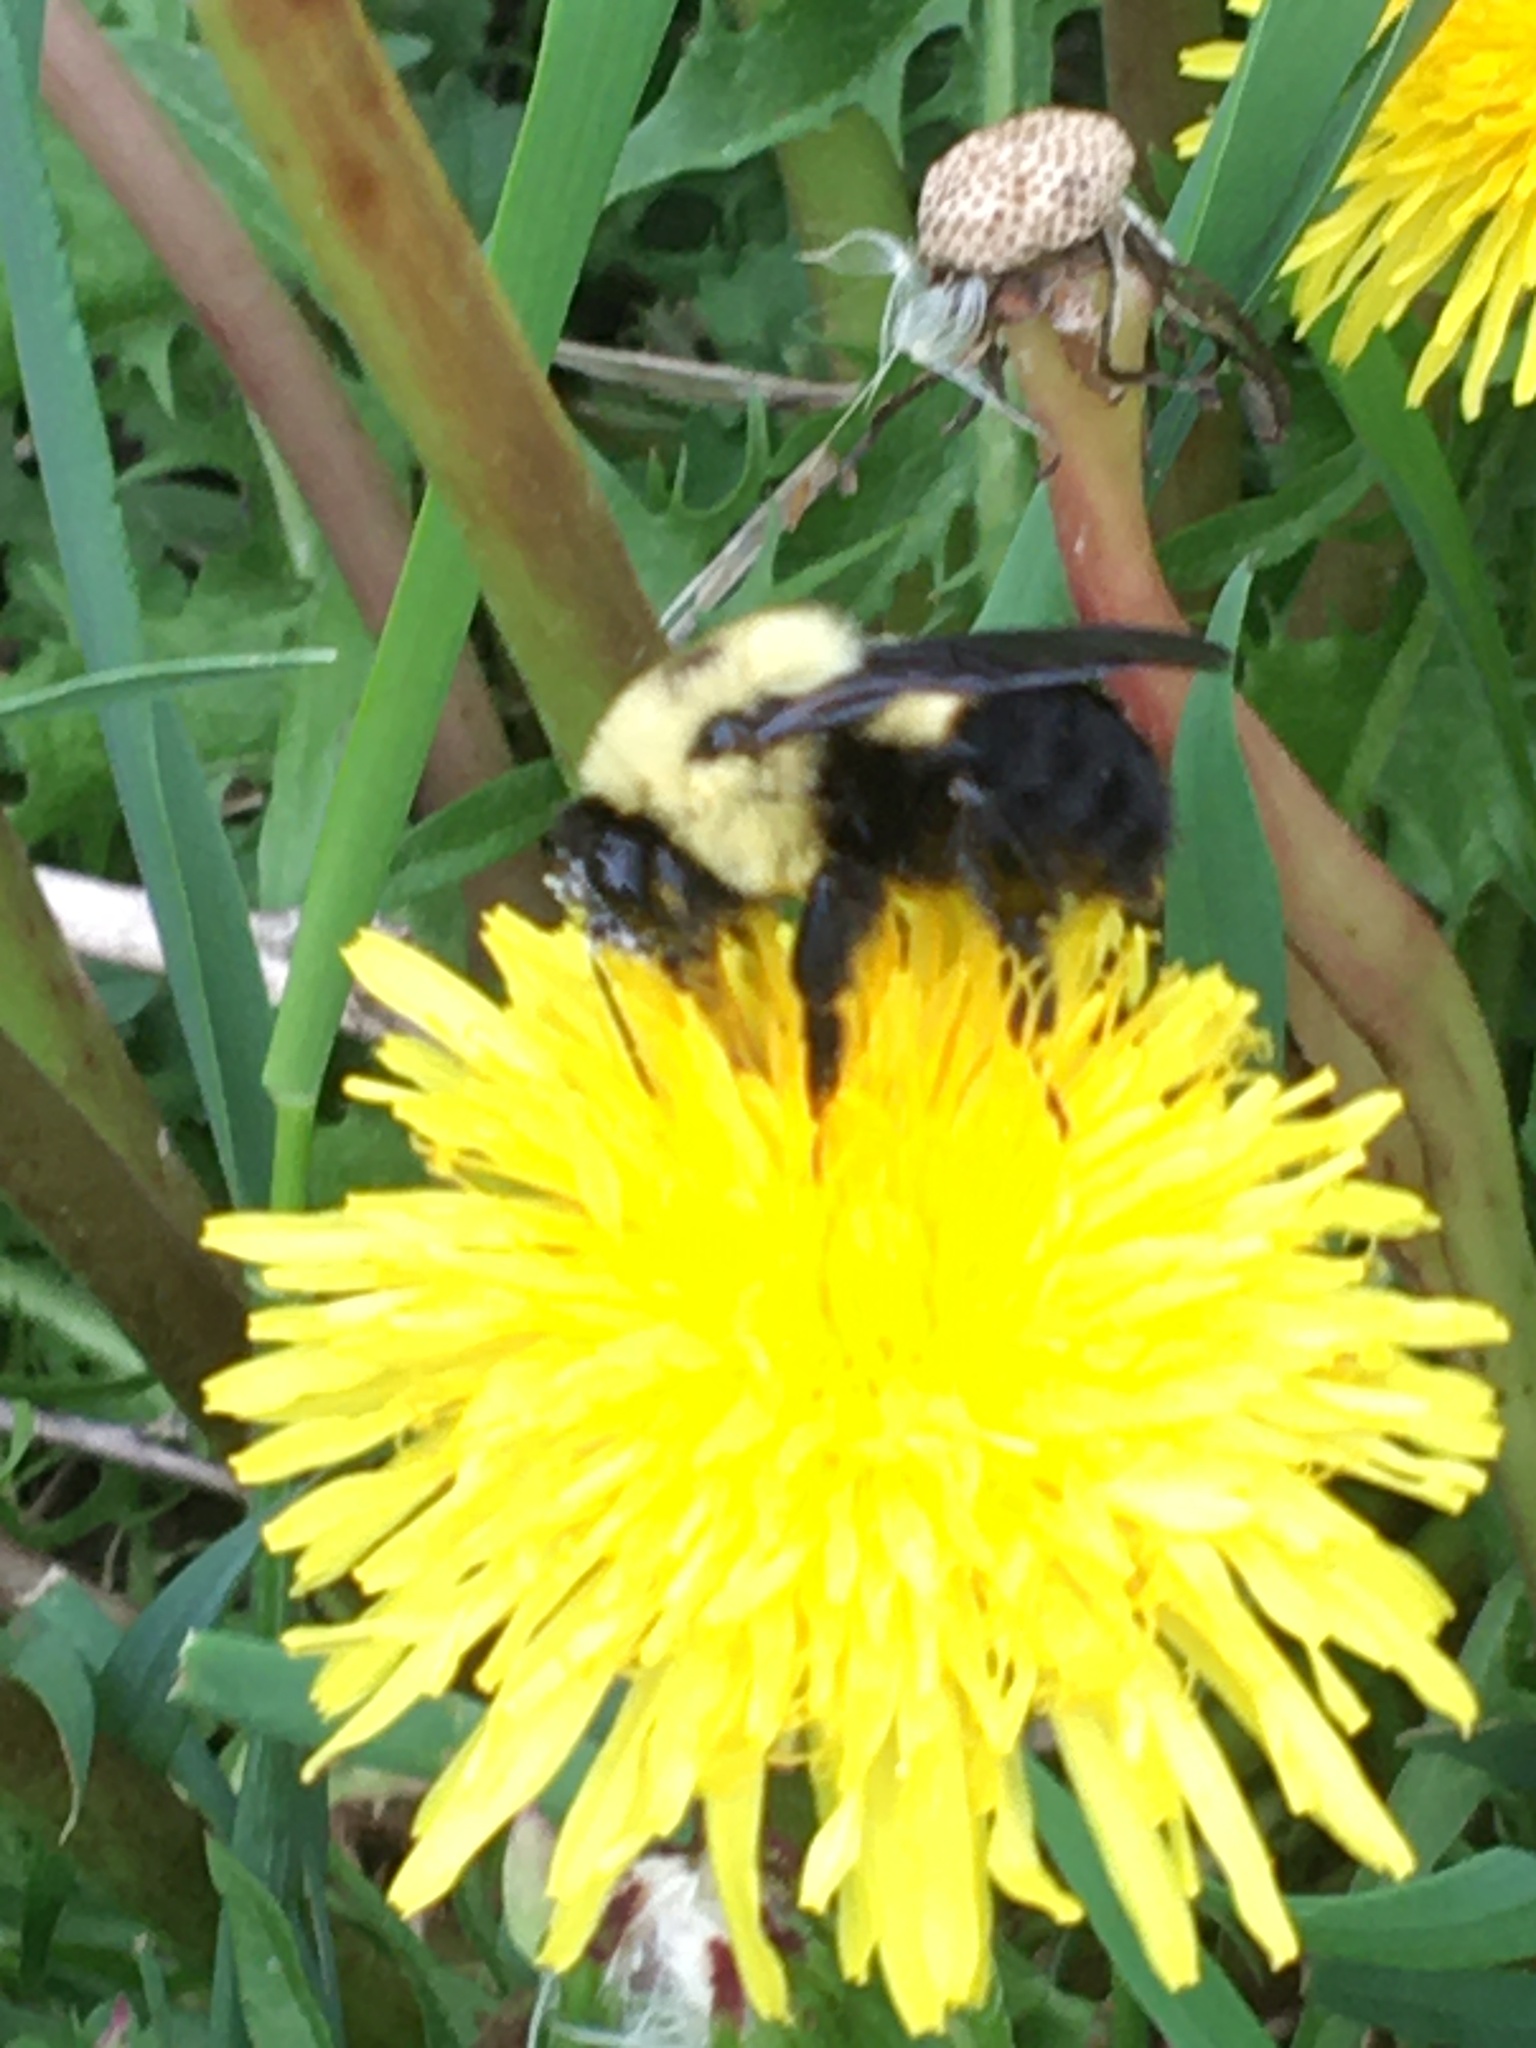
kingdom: Animalia
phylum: Arthropoda
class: Insecta
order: Hymenoptera
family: Apidae
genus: Bombus
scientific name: Bombus griseocollis
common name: Brown-belted bumble bee
